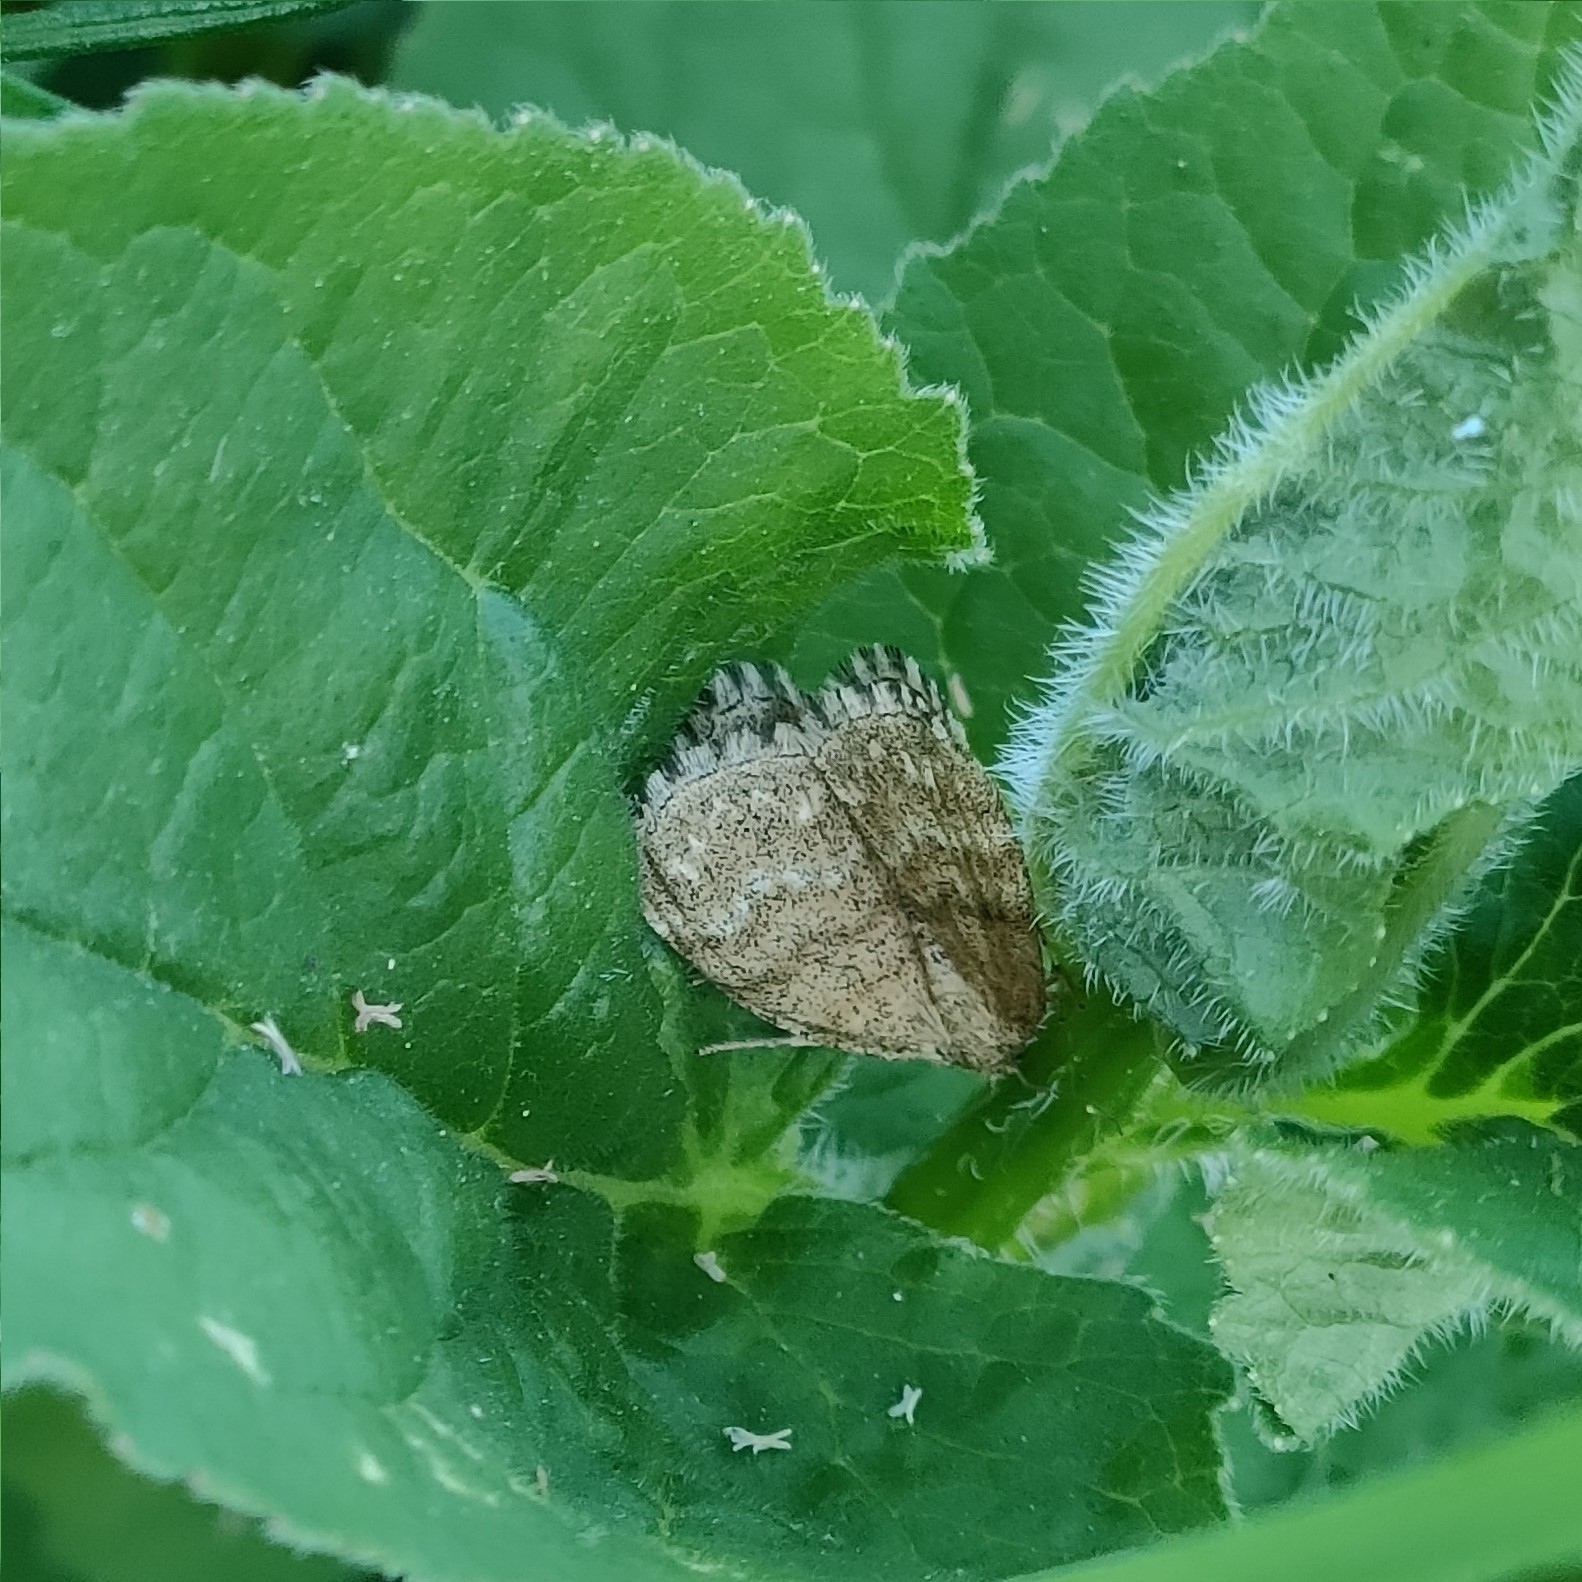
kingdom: Animalia
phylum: Arthropoda
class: Insecta
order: Lepidoptera
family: Geometridae
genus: Scopula
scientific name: Scopula immorata
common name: Lewes wave
